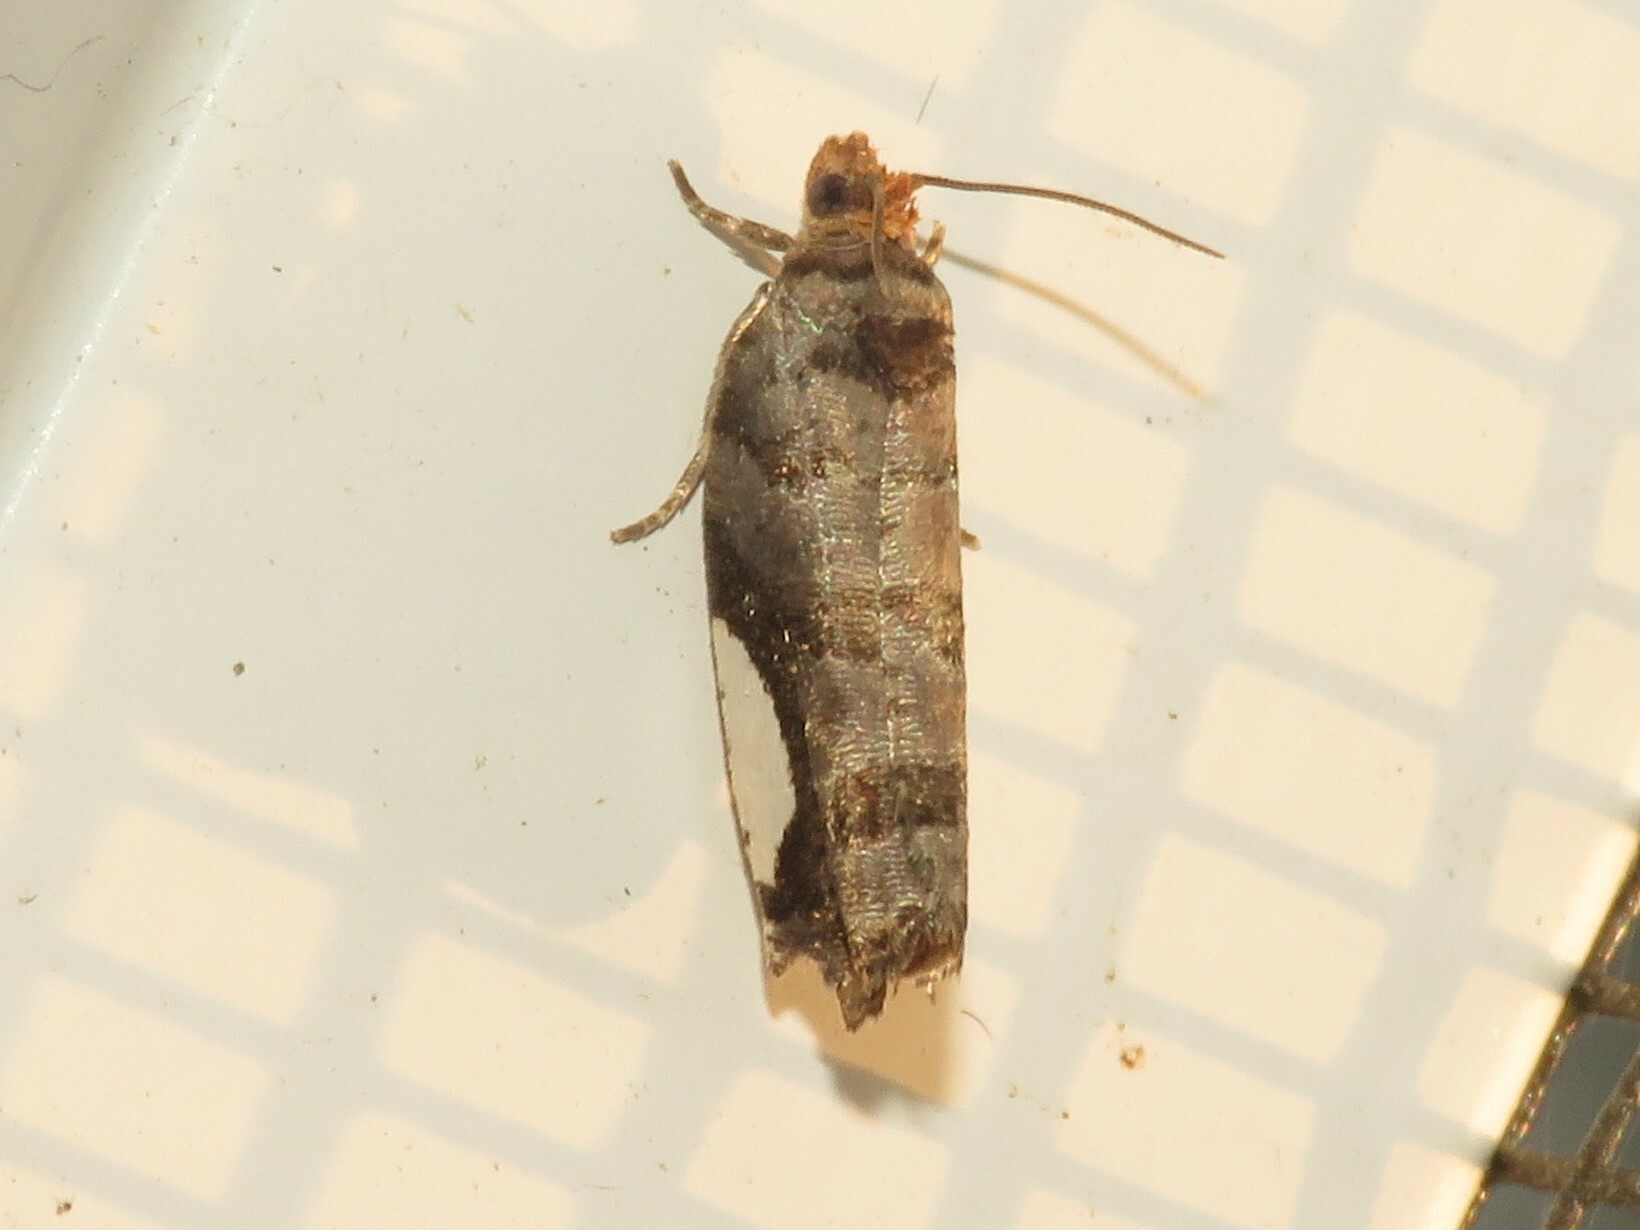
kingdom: Animalia
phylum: Arthropoda
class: Insecta
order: Lepidoptera
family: Tortricidae
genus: Hedya
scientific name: Hedya chionosema
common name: White-spotted hedya moth
